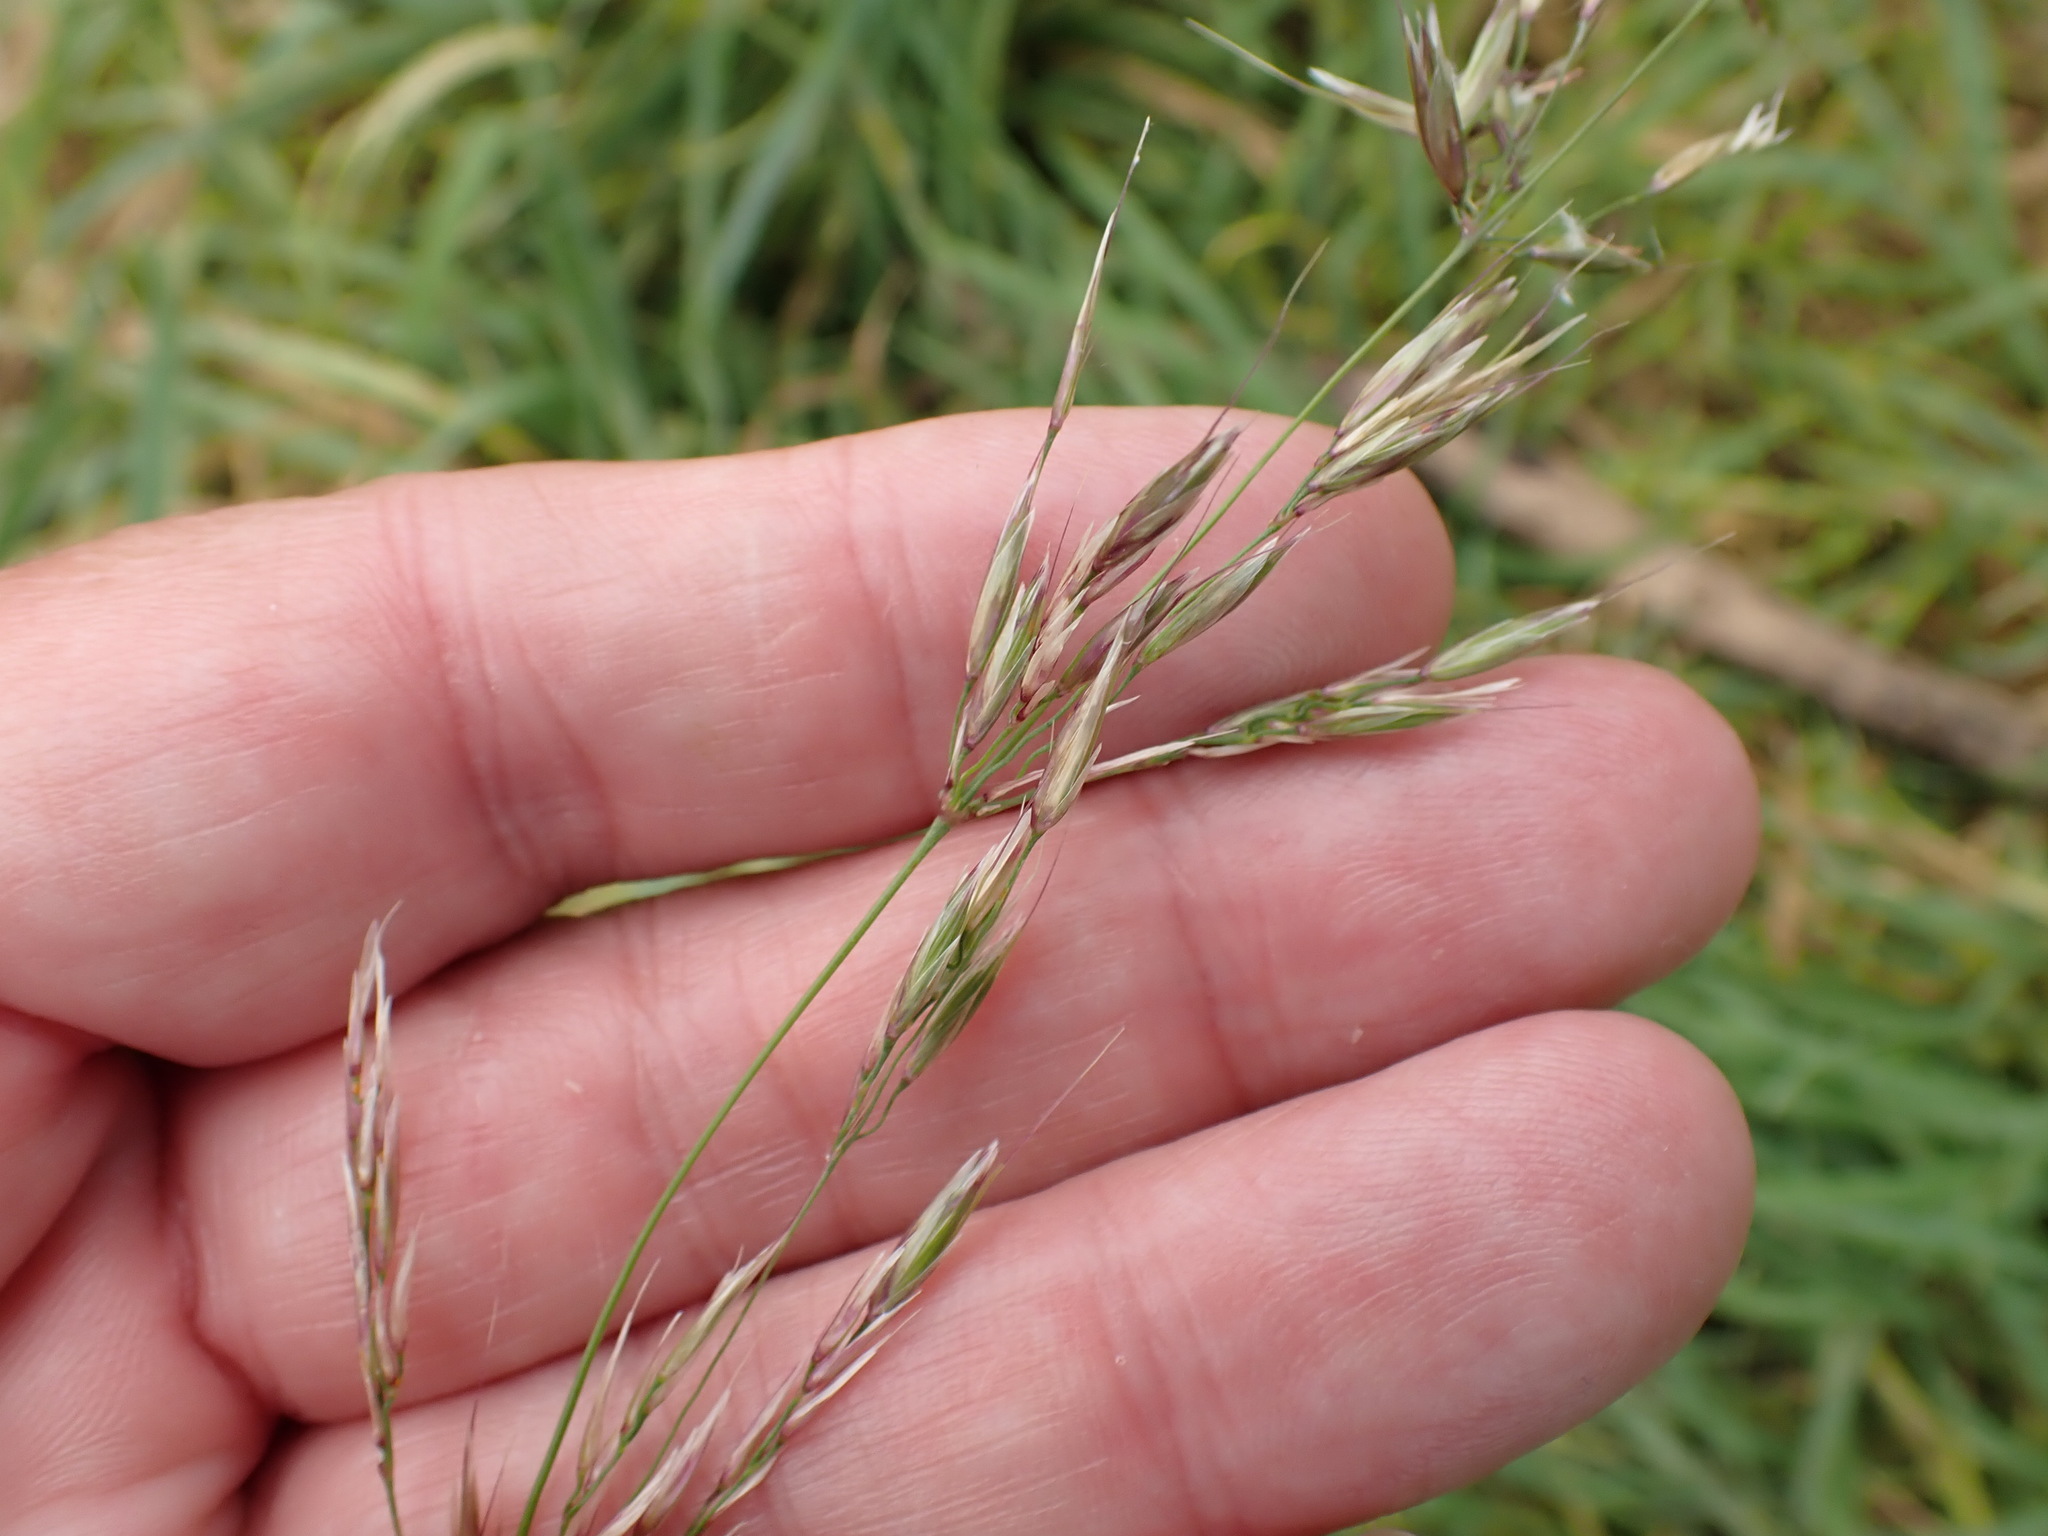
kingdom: Plantae
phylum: Tracheophyta
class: Liliopsida
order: Poales
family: Poaceae
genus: Arrhenatherum
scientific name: Arrhenatherum elatius
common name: Tall oatgrass
